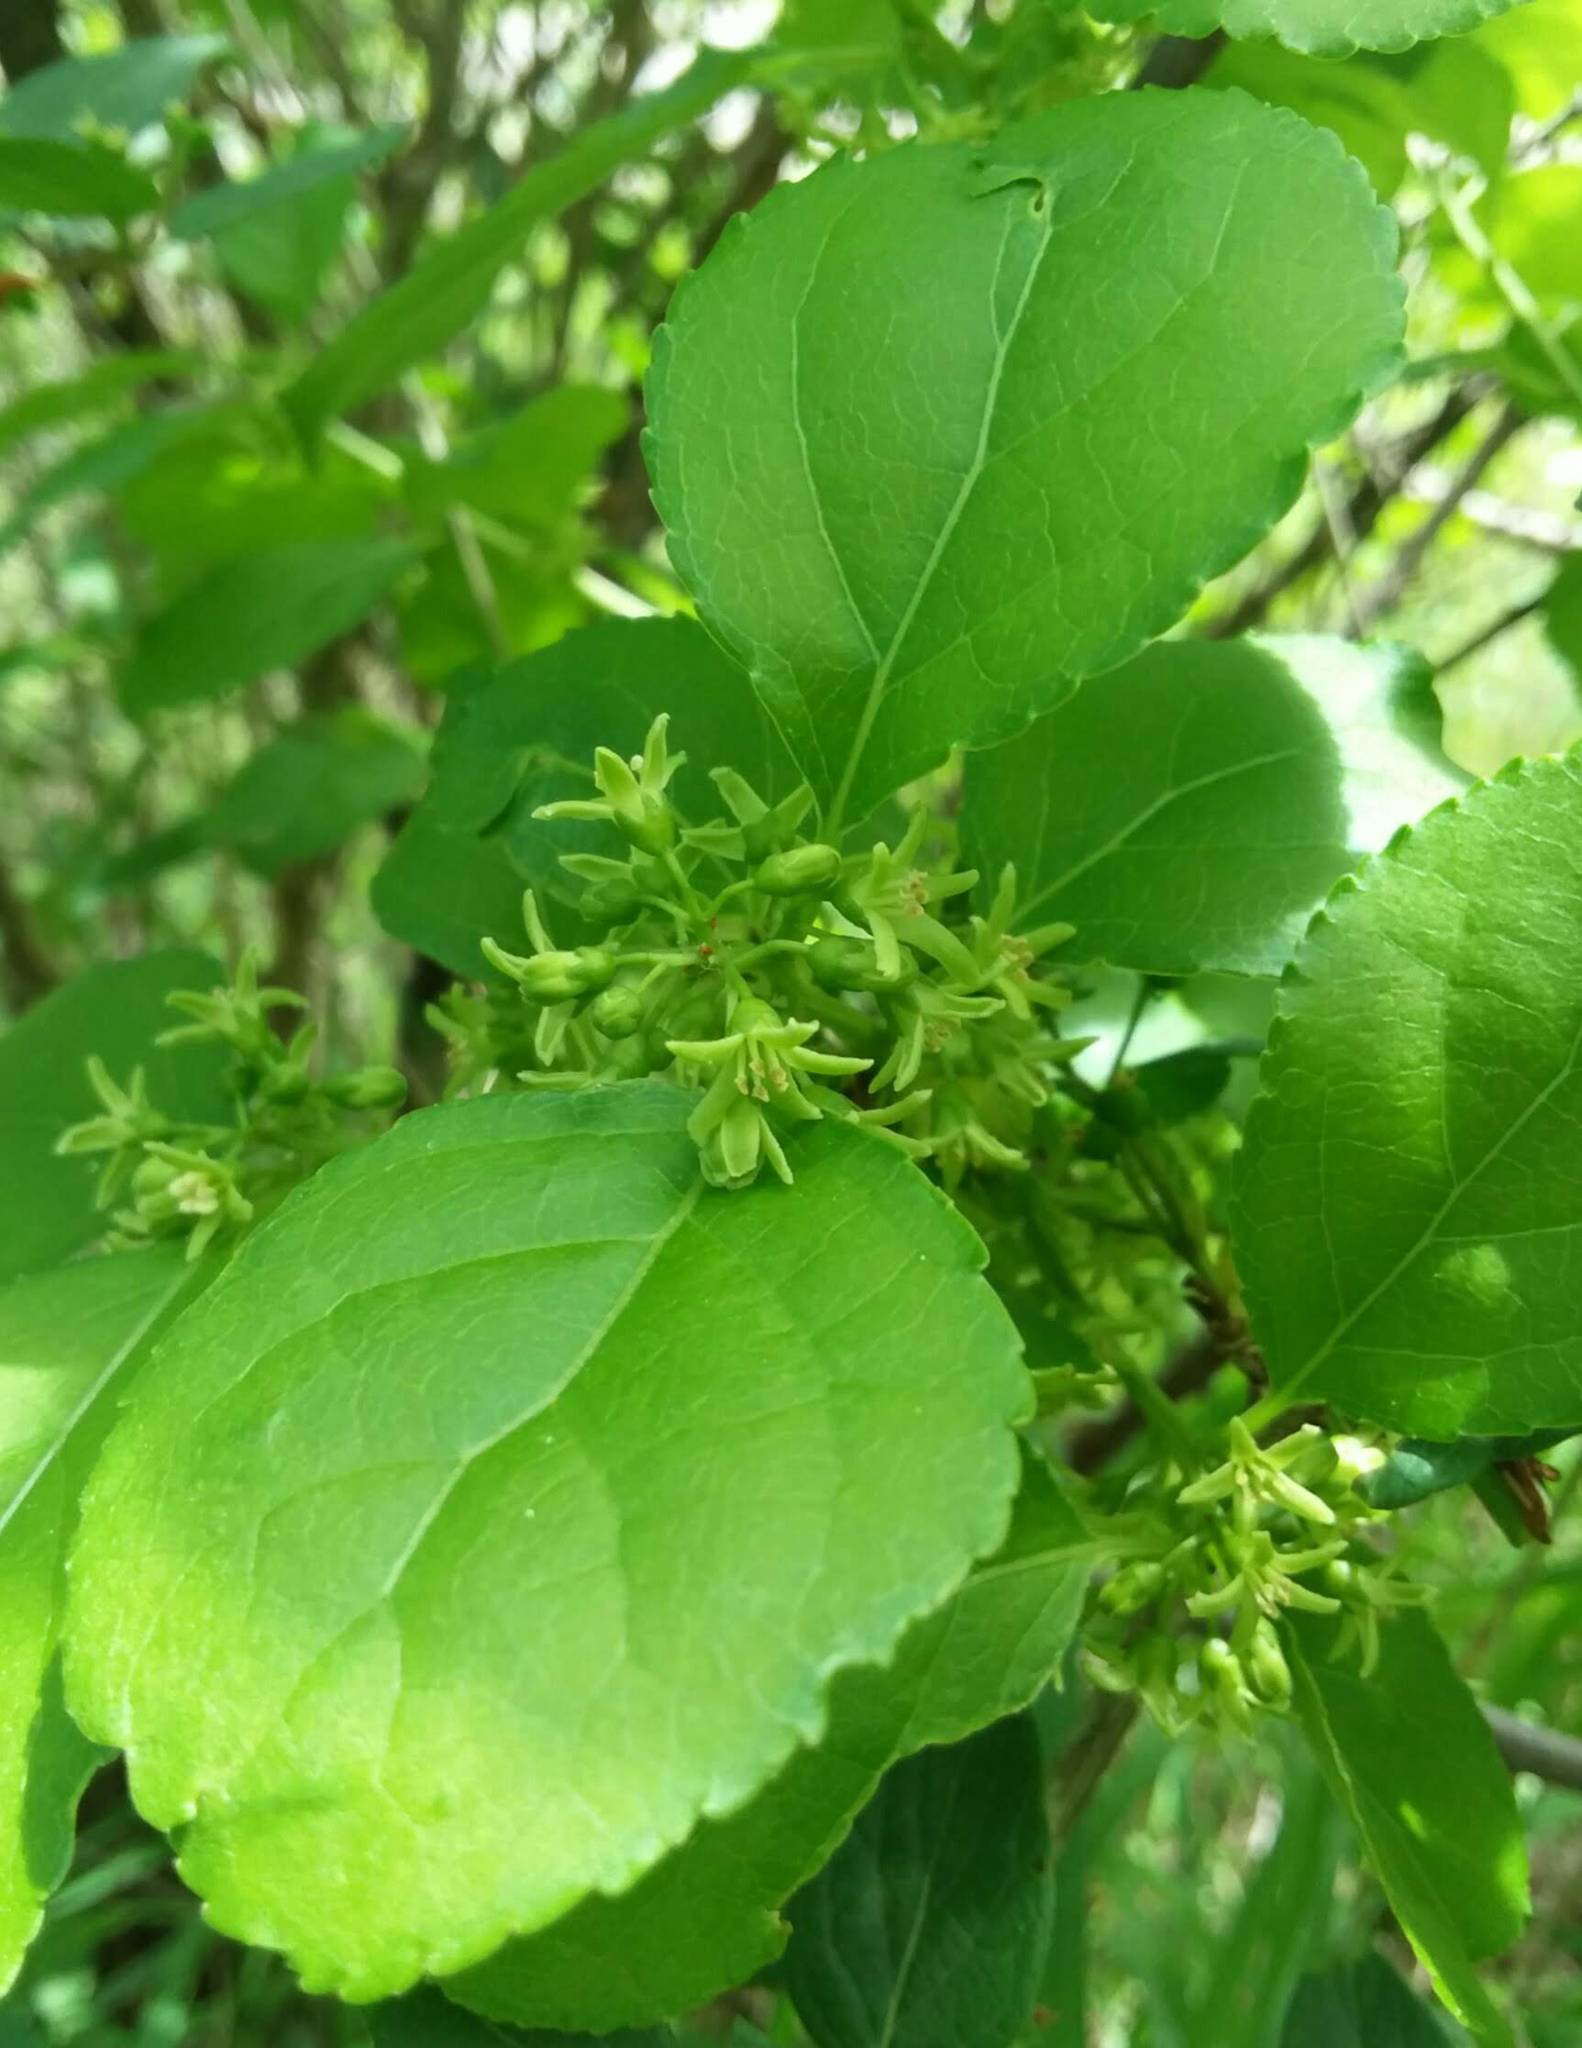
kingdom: Plantae
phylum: Tracheophyta
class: Magnoliopsida
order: Celastrales
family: Celastraceae
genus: Celastrus
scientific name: Celastrus orbiculatus
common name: Oriental bittersweet
